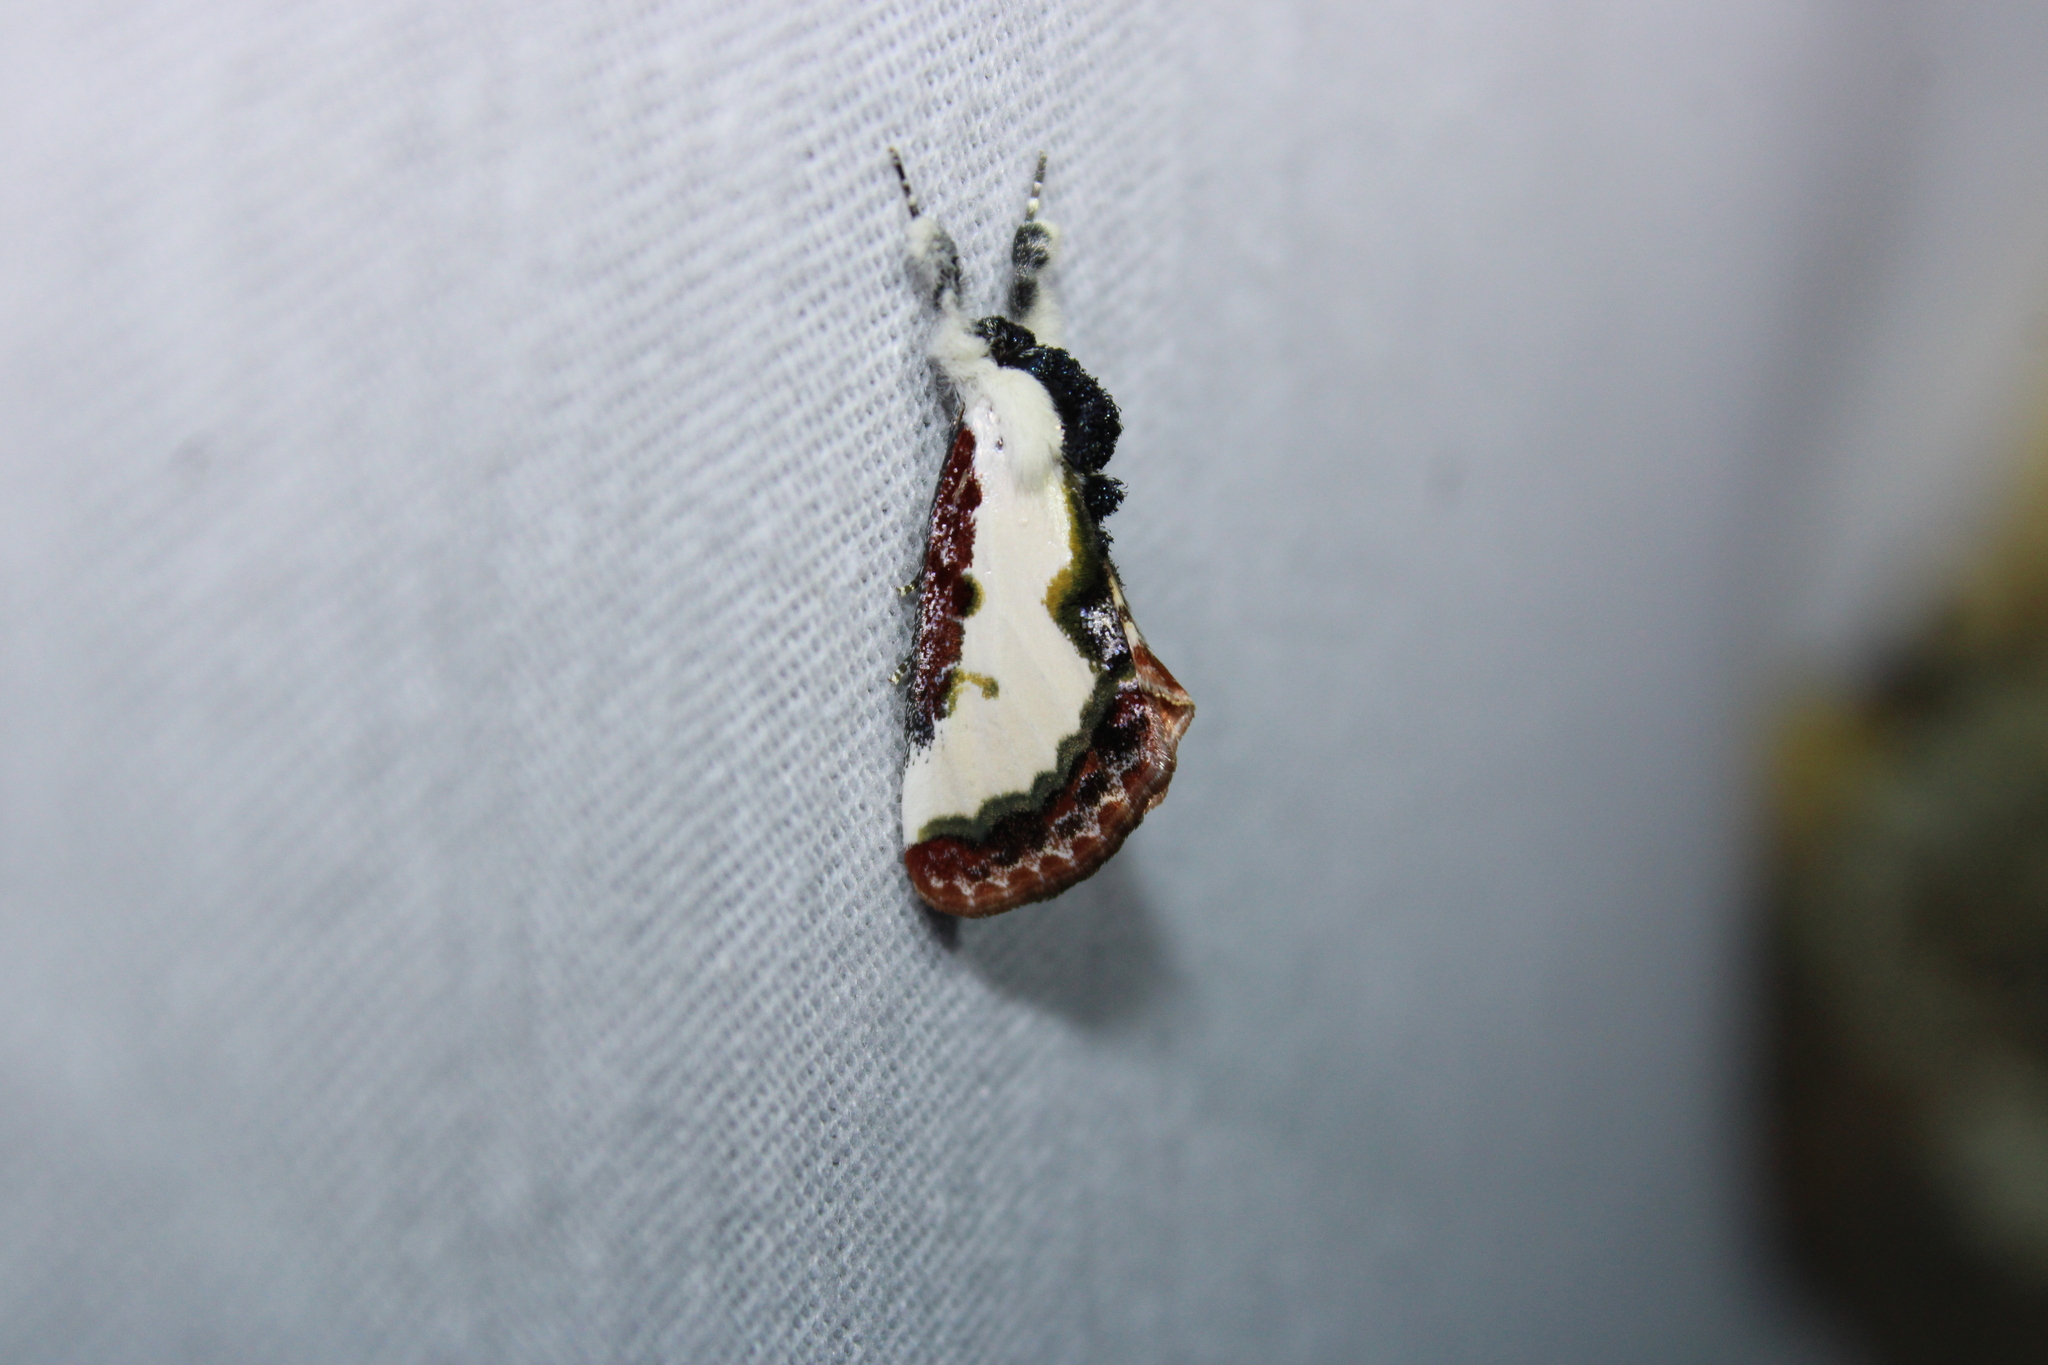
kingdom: Animalia
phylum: Arthropoda
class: Insecta
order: Lepidoptera
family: Noctuidae
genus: Eudryas
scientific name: Eudryas unio
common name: Pearly wood-nymph
